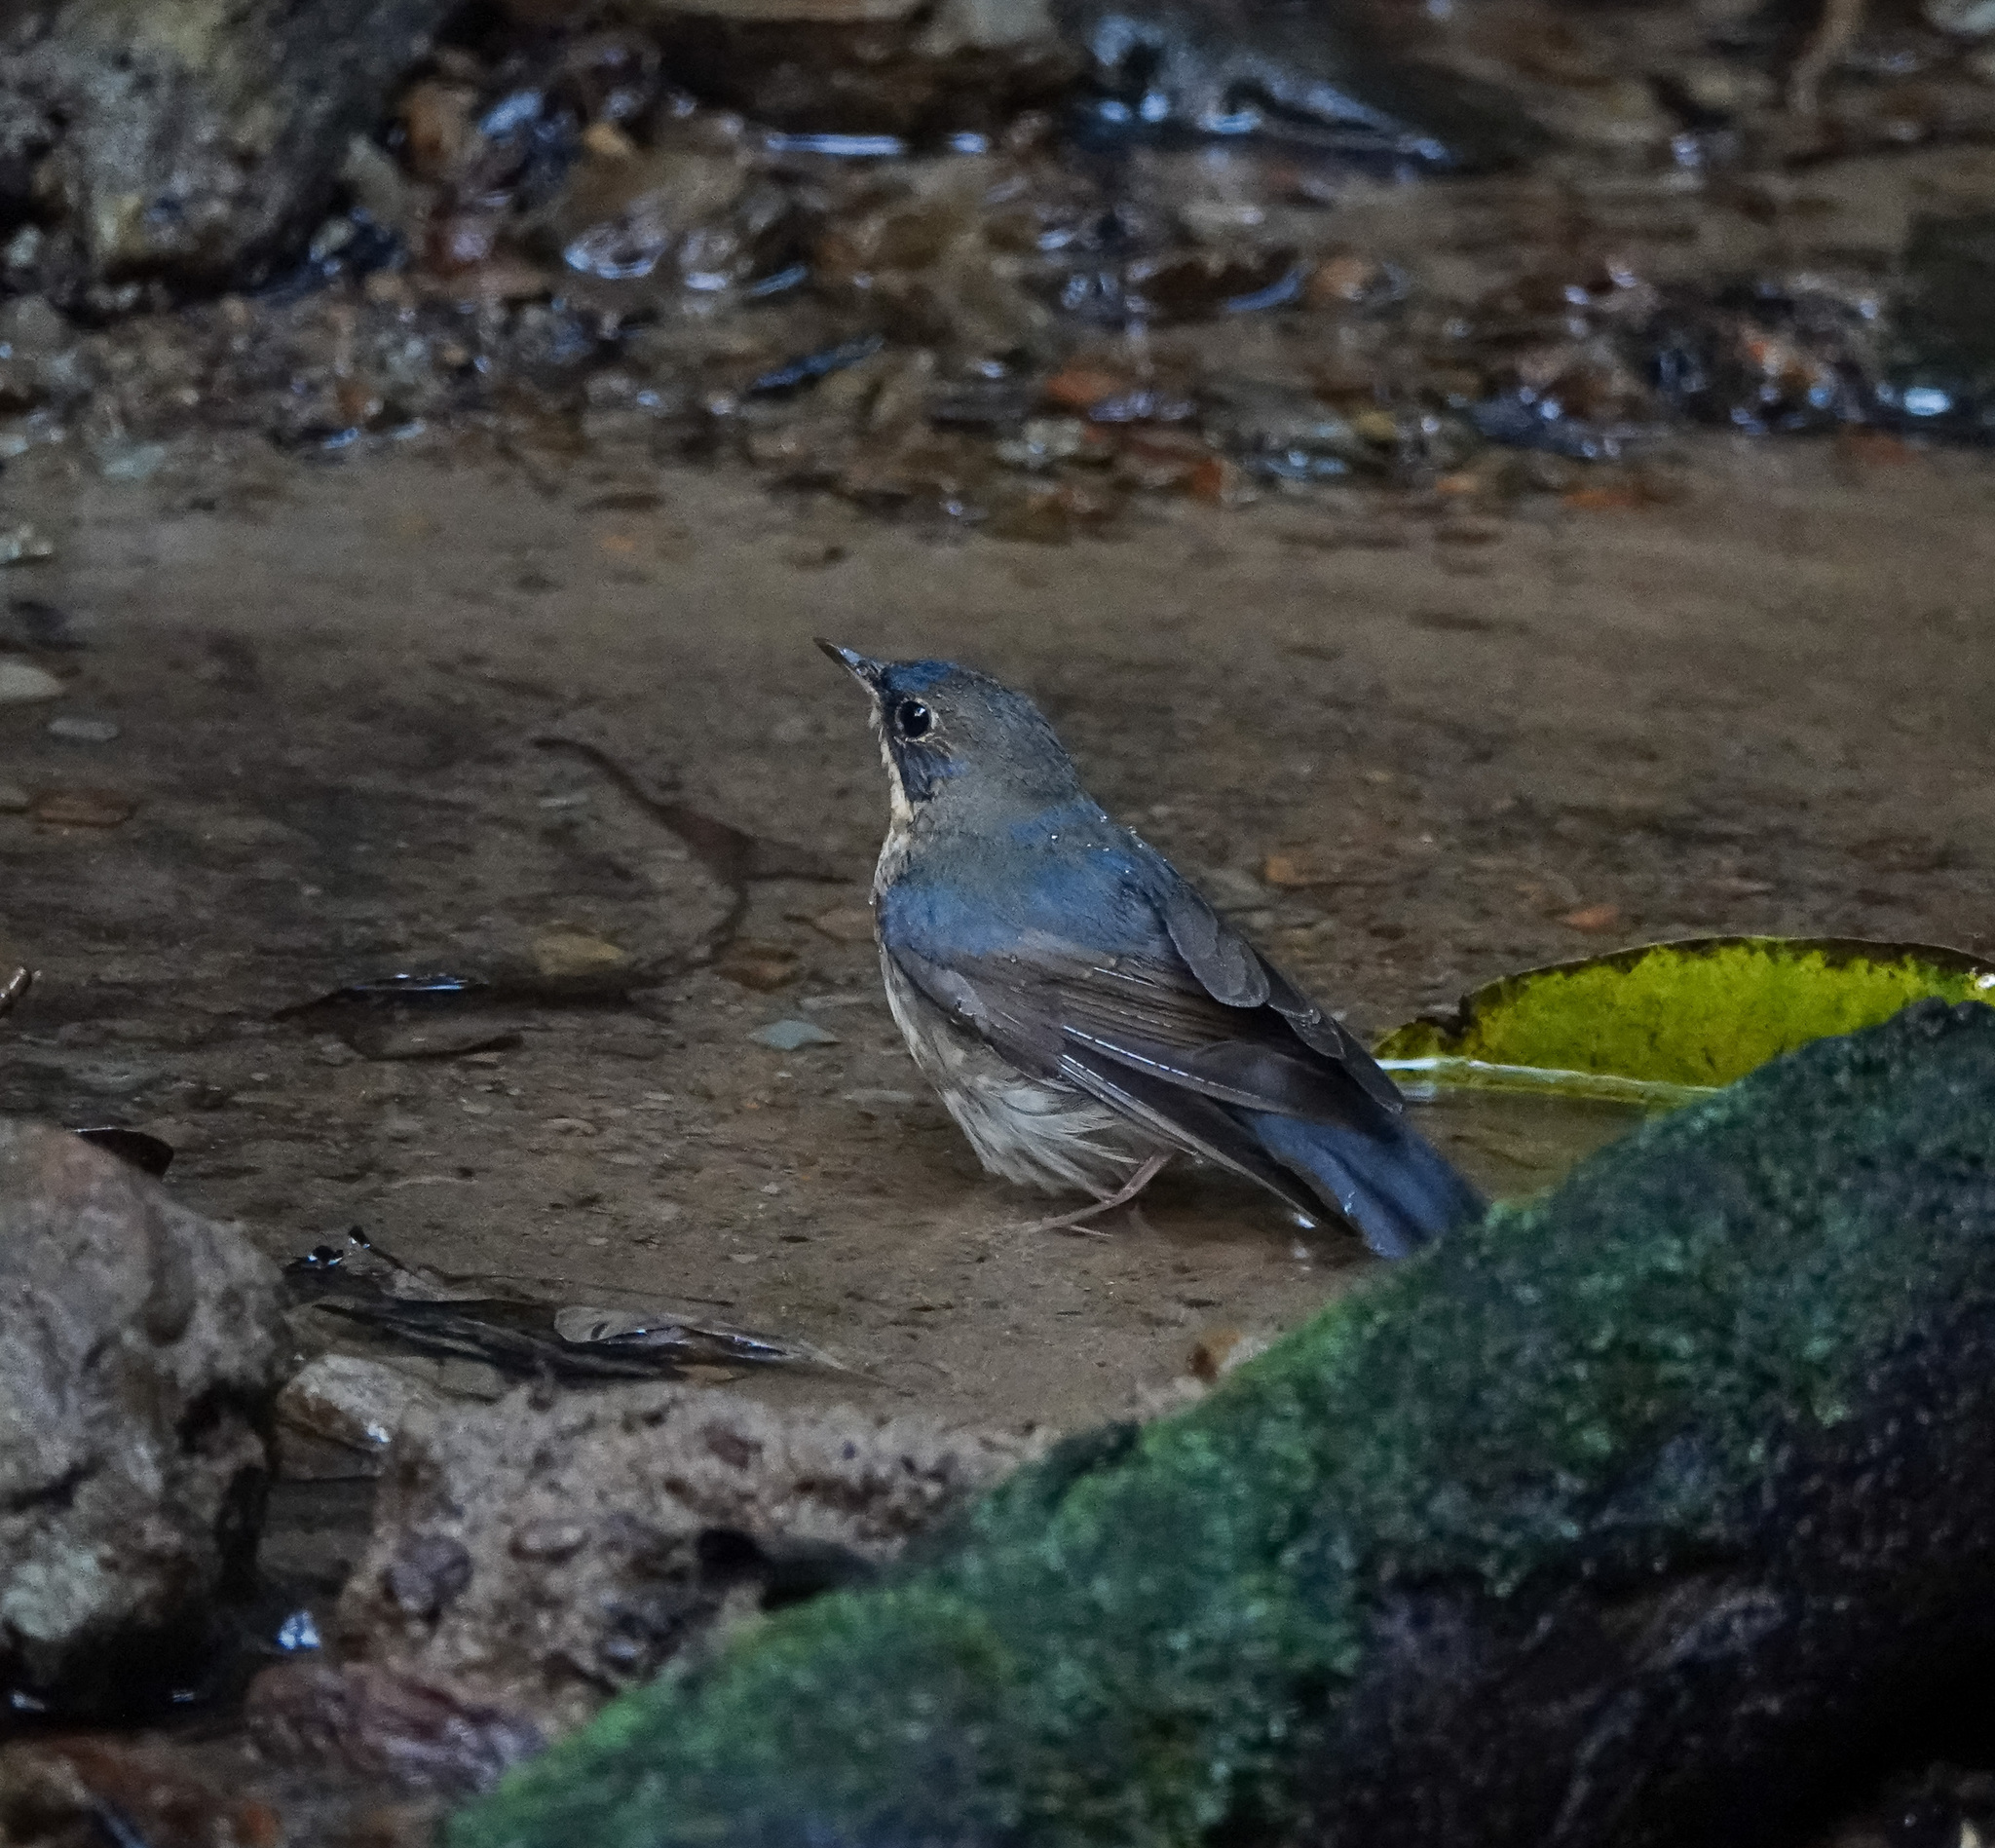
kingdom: Animalia
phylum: Chordata
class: Aves
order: Passeriformes
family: Muscicapidae
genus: Luscinia
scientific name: Luscinia cyane
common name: Siberian blue robin
